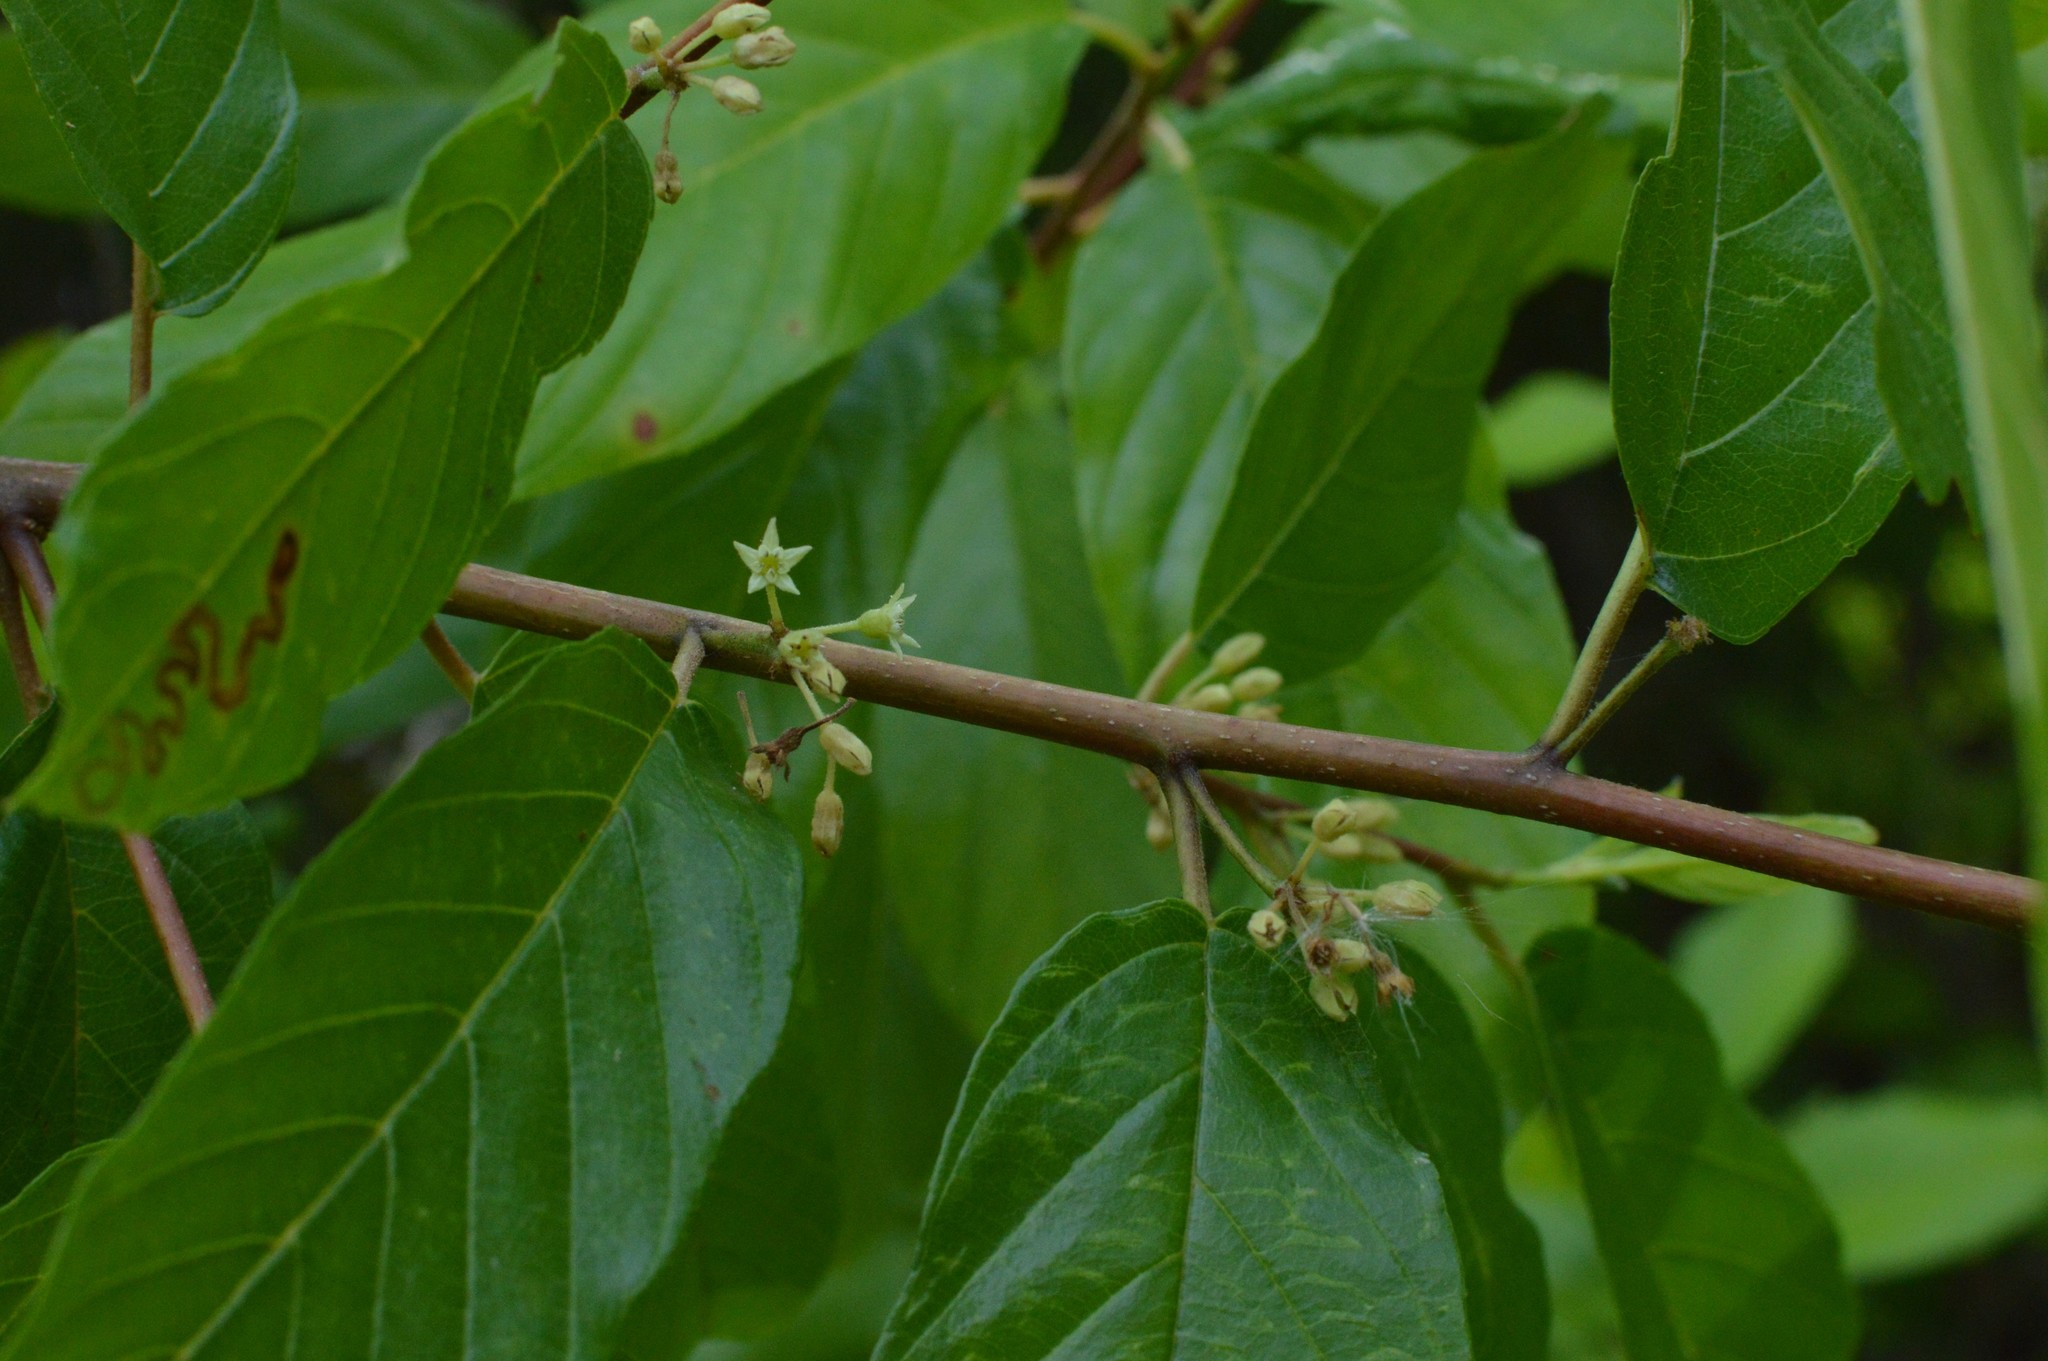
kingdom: Plantae
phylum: Tracheophyta
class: Magnoliopsida
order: Rosales
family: Rhamnaceae
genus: Frangula
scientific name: Frangula caroliniana
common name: Carolina buckthorn
